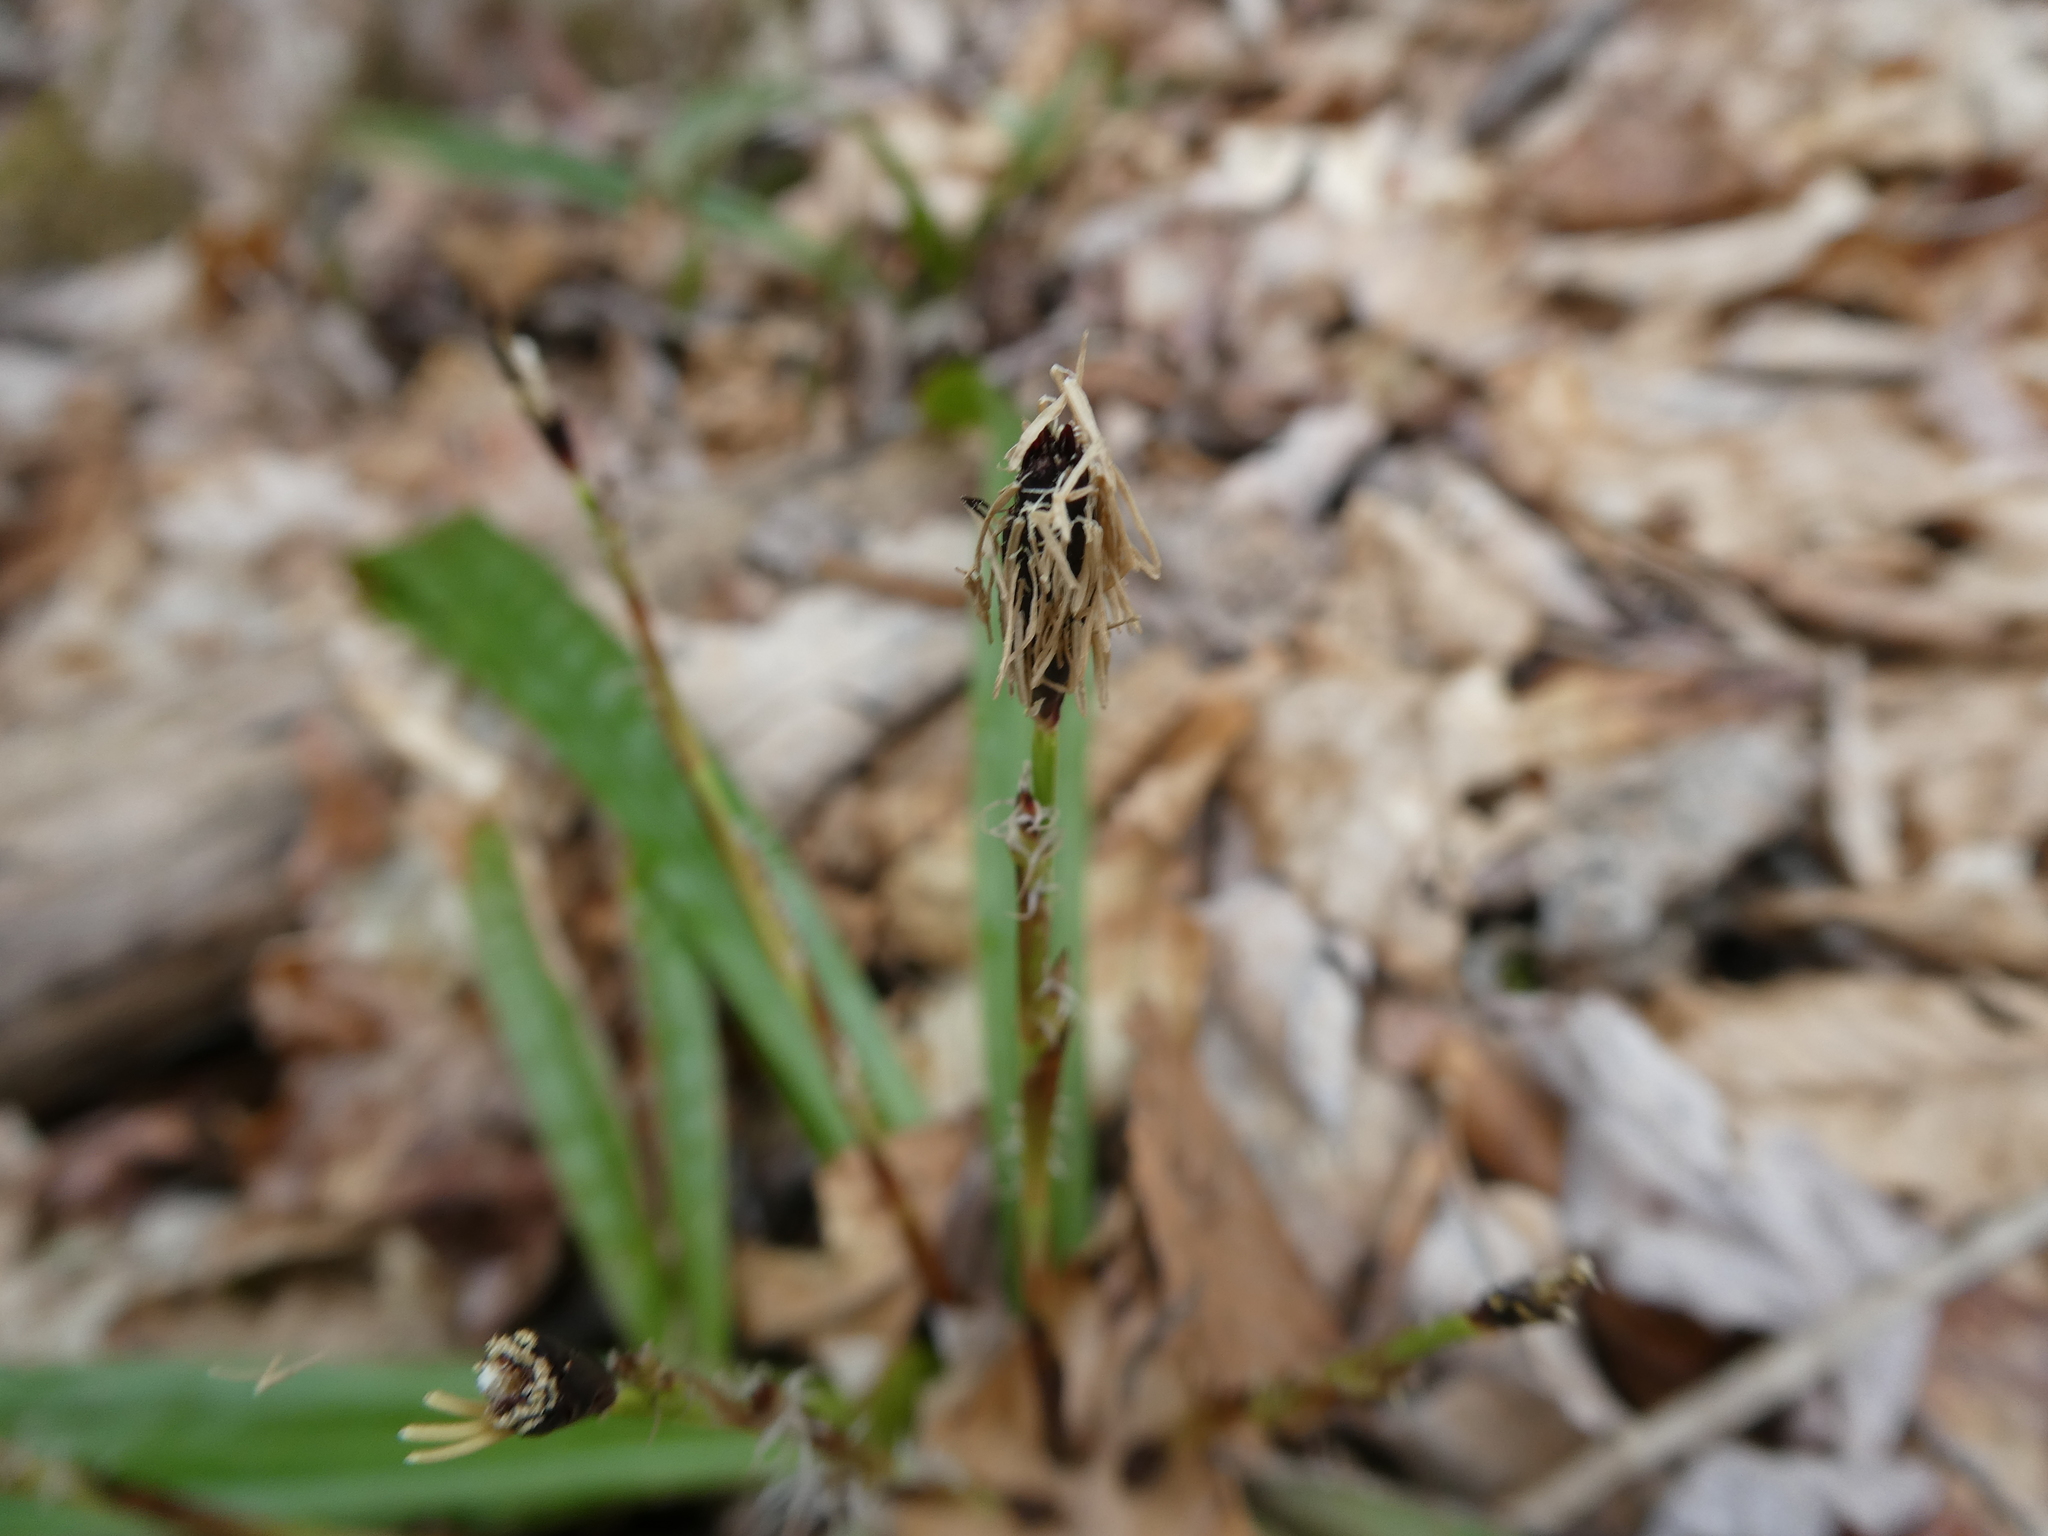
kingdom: Plantae
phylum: Tracheophyta
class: Liliopsida
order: Poales
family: Cyperaceae
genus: Carex
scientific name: Carex plantaginea
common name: Plantain-leaved sedge
